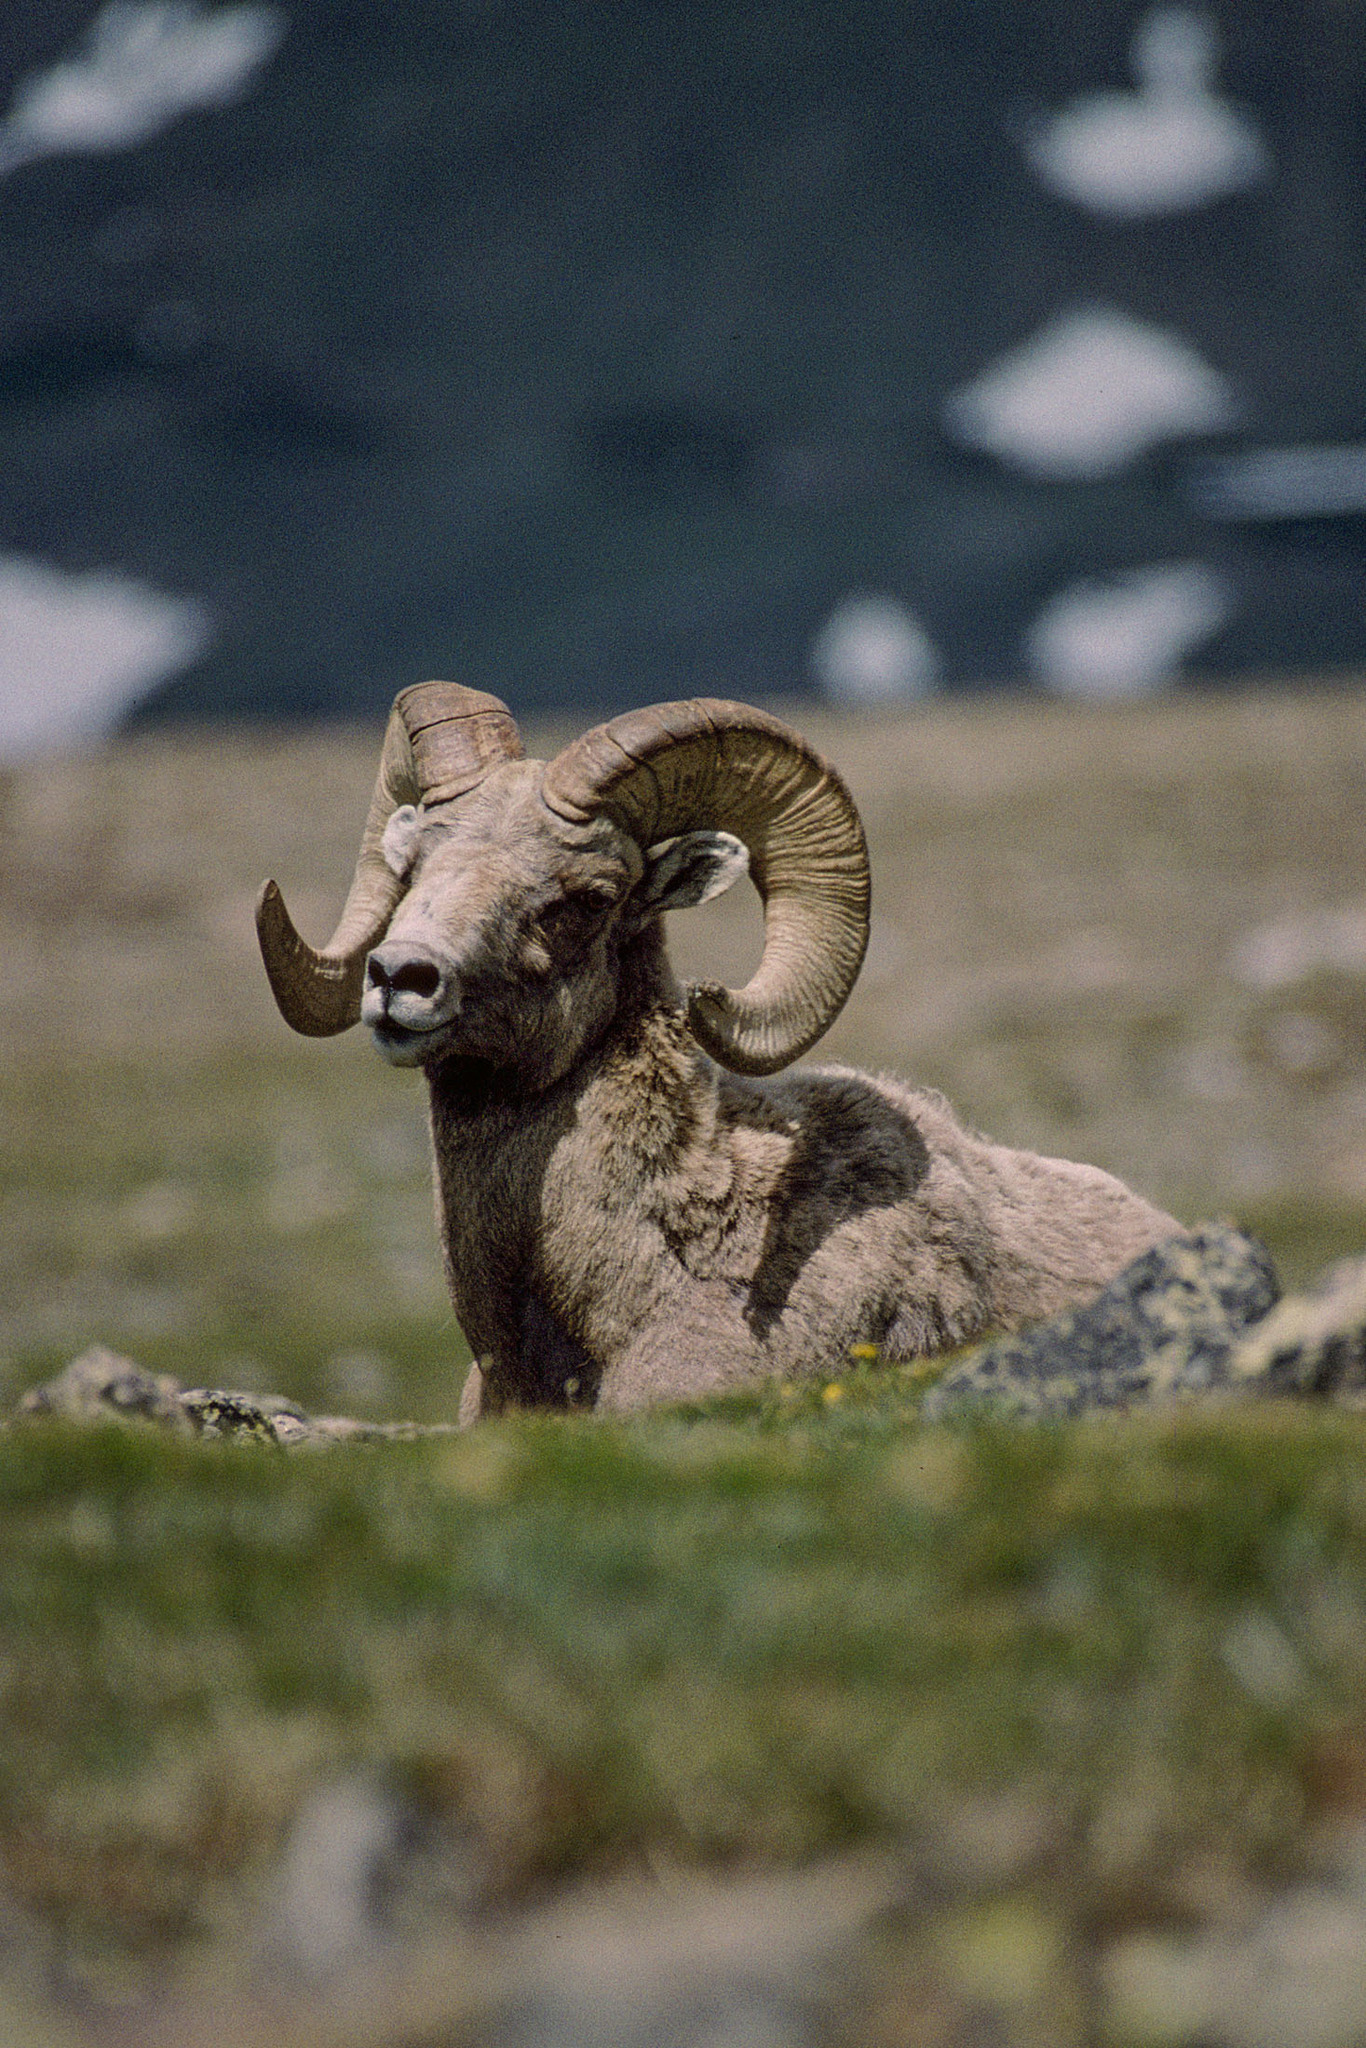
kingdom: Animalia
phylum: Chordata
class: Mammalia
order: Artiodactyla
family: Bovidae
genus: Ovis
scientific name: Ovis canadensis
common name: Bighorn sheep
